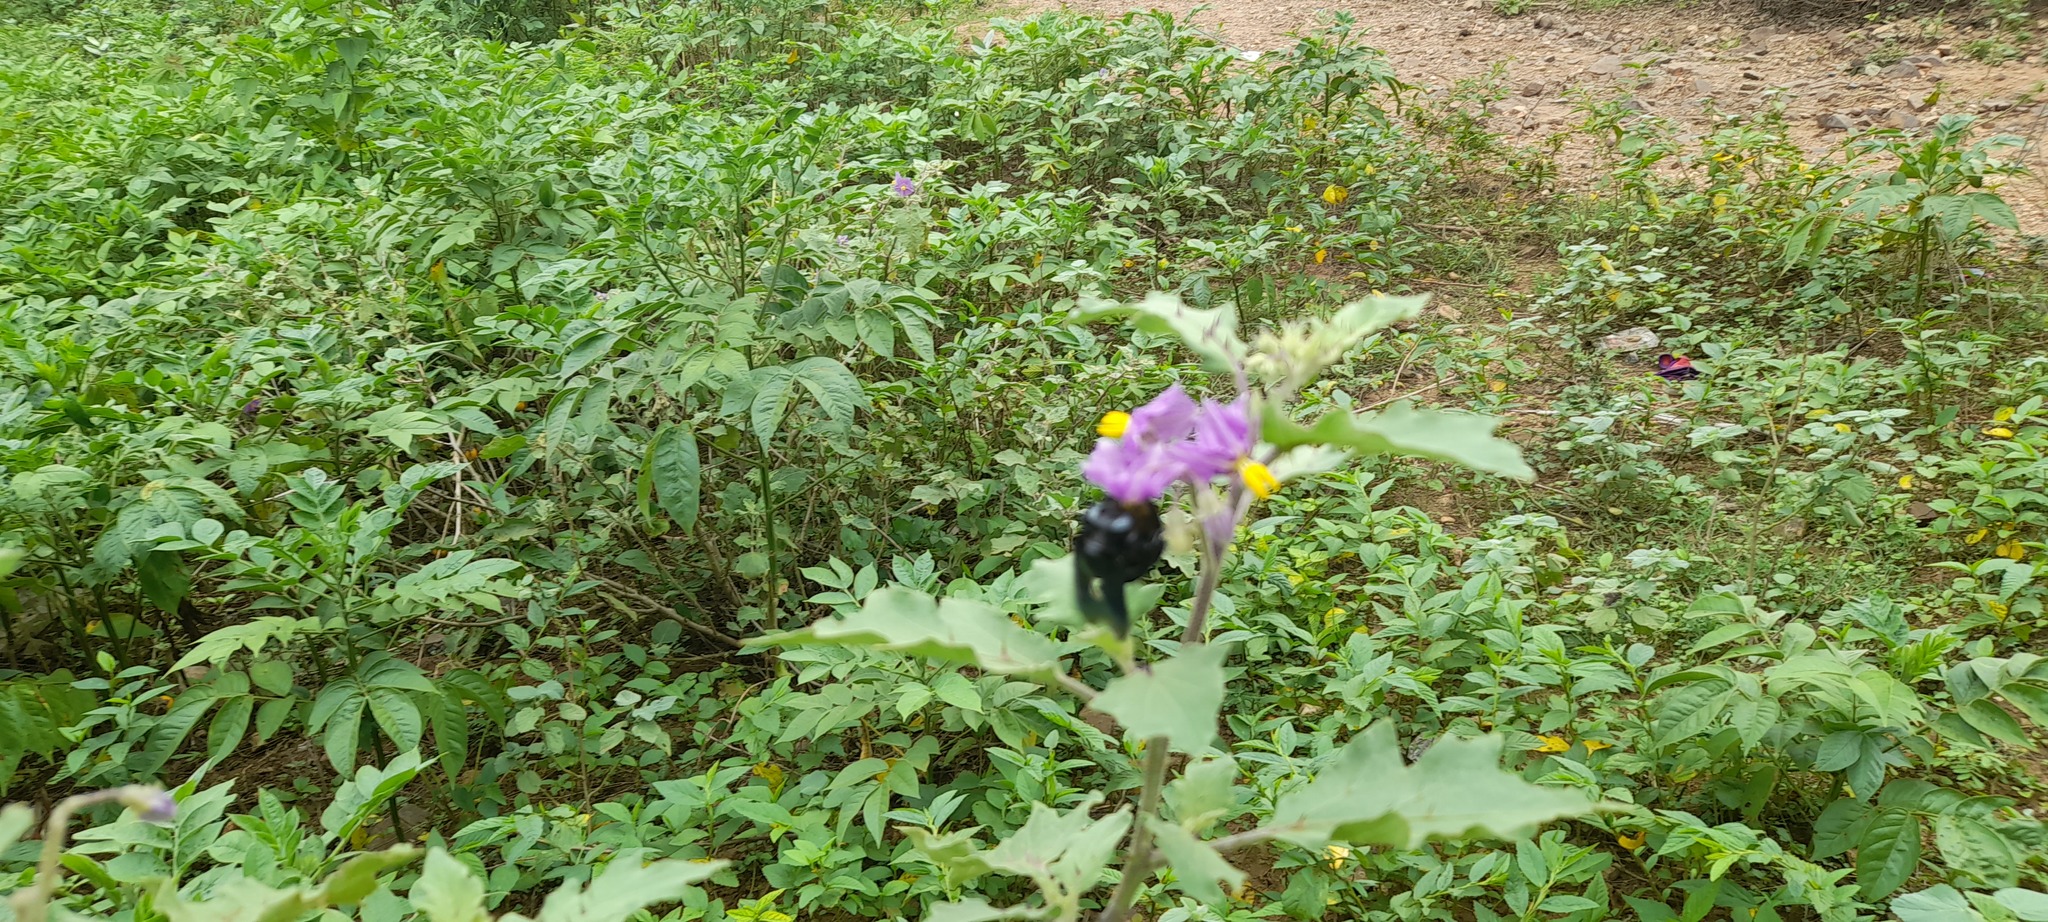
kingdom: Animalia
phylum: Arthropoda
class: Insecta
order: Hymenoptera
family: Apidae
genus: Xylocopa
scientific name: Xylocopa tenuiscapa
